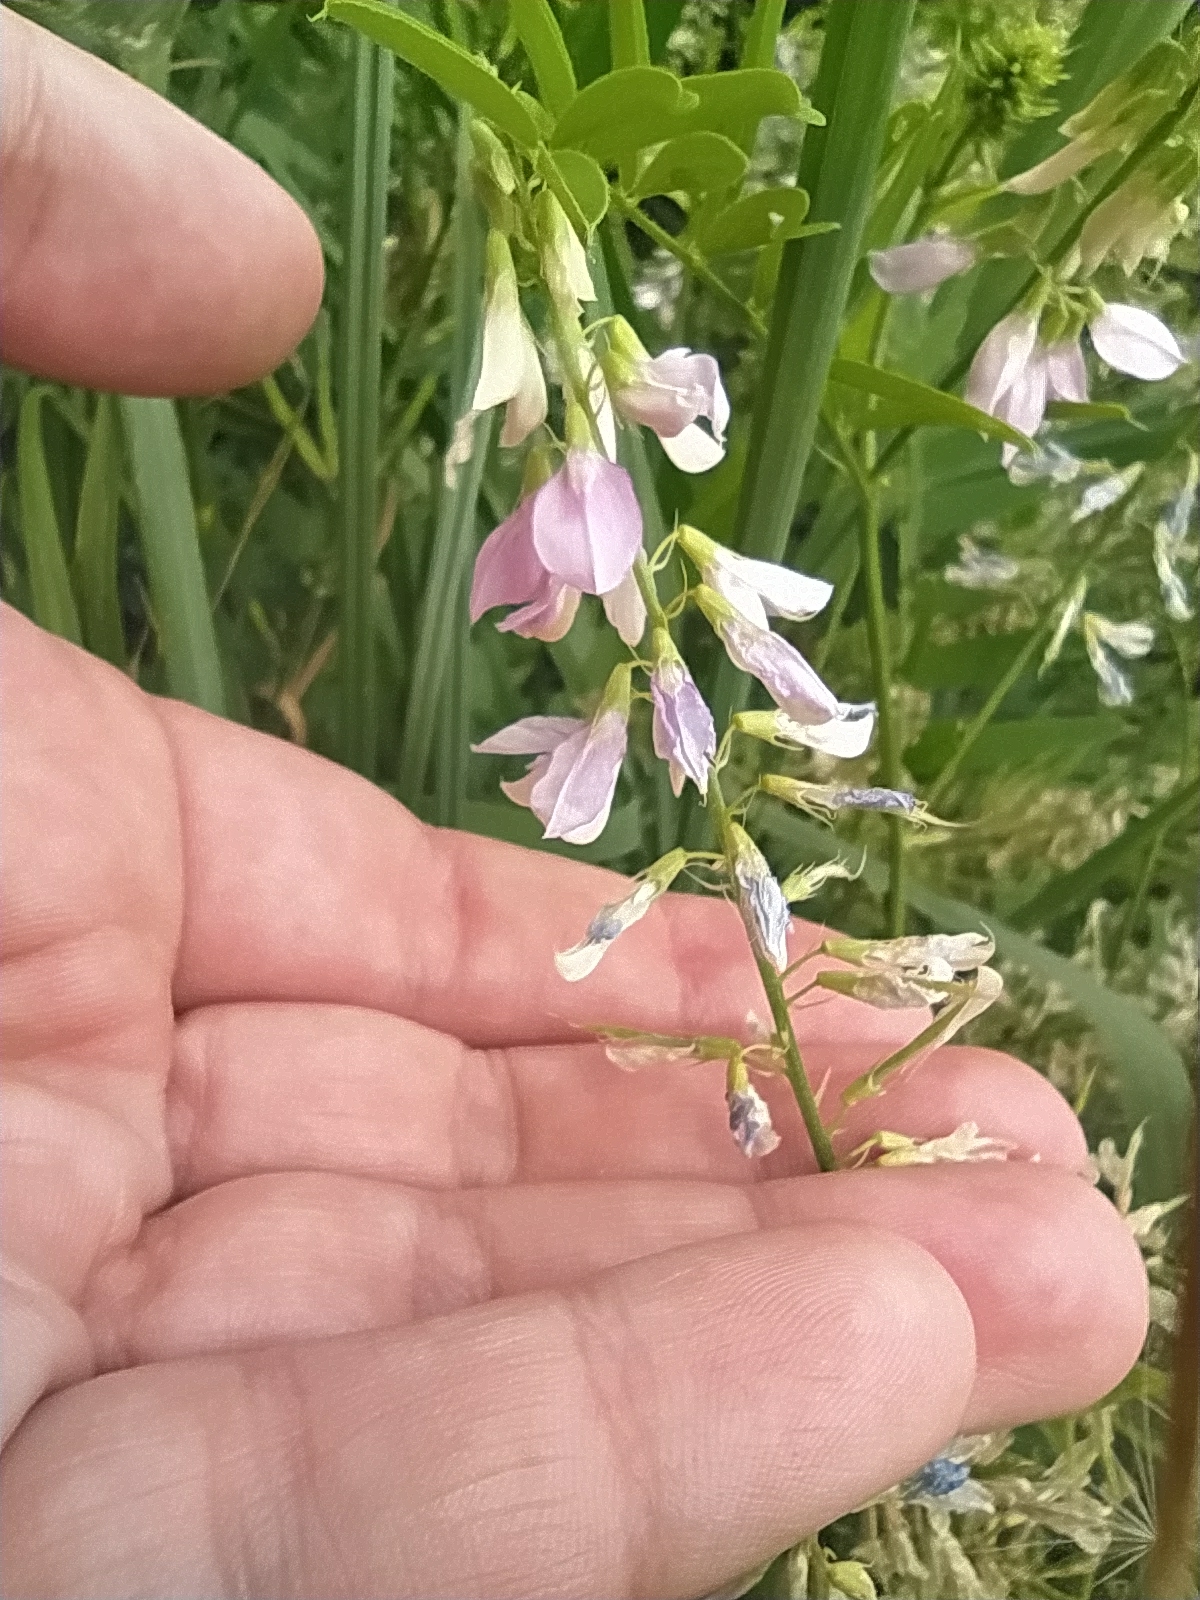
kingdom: Plantae
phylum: Tracheophyta
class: Magnoliopsida
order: Fabales
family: Fabaceae
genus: Galega
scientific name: Galega officinalis
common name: Goat's-rue
